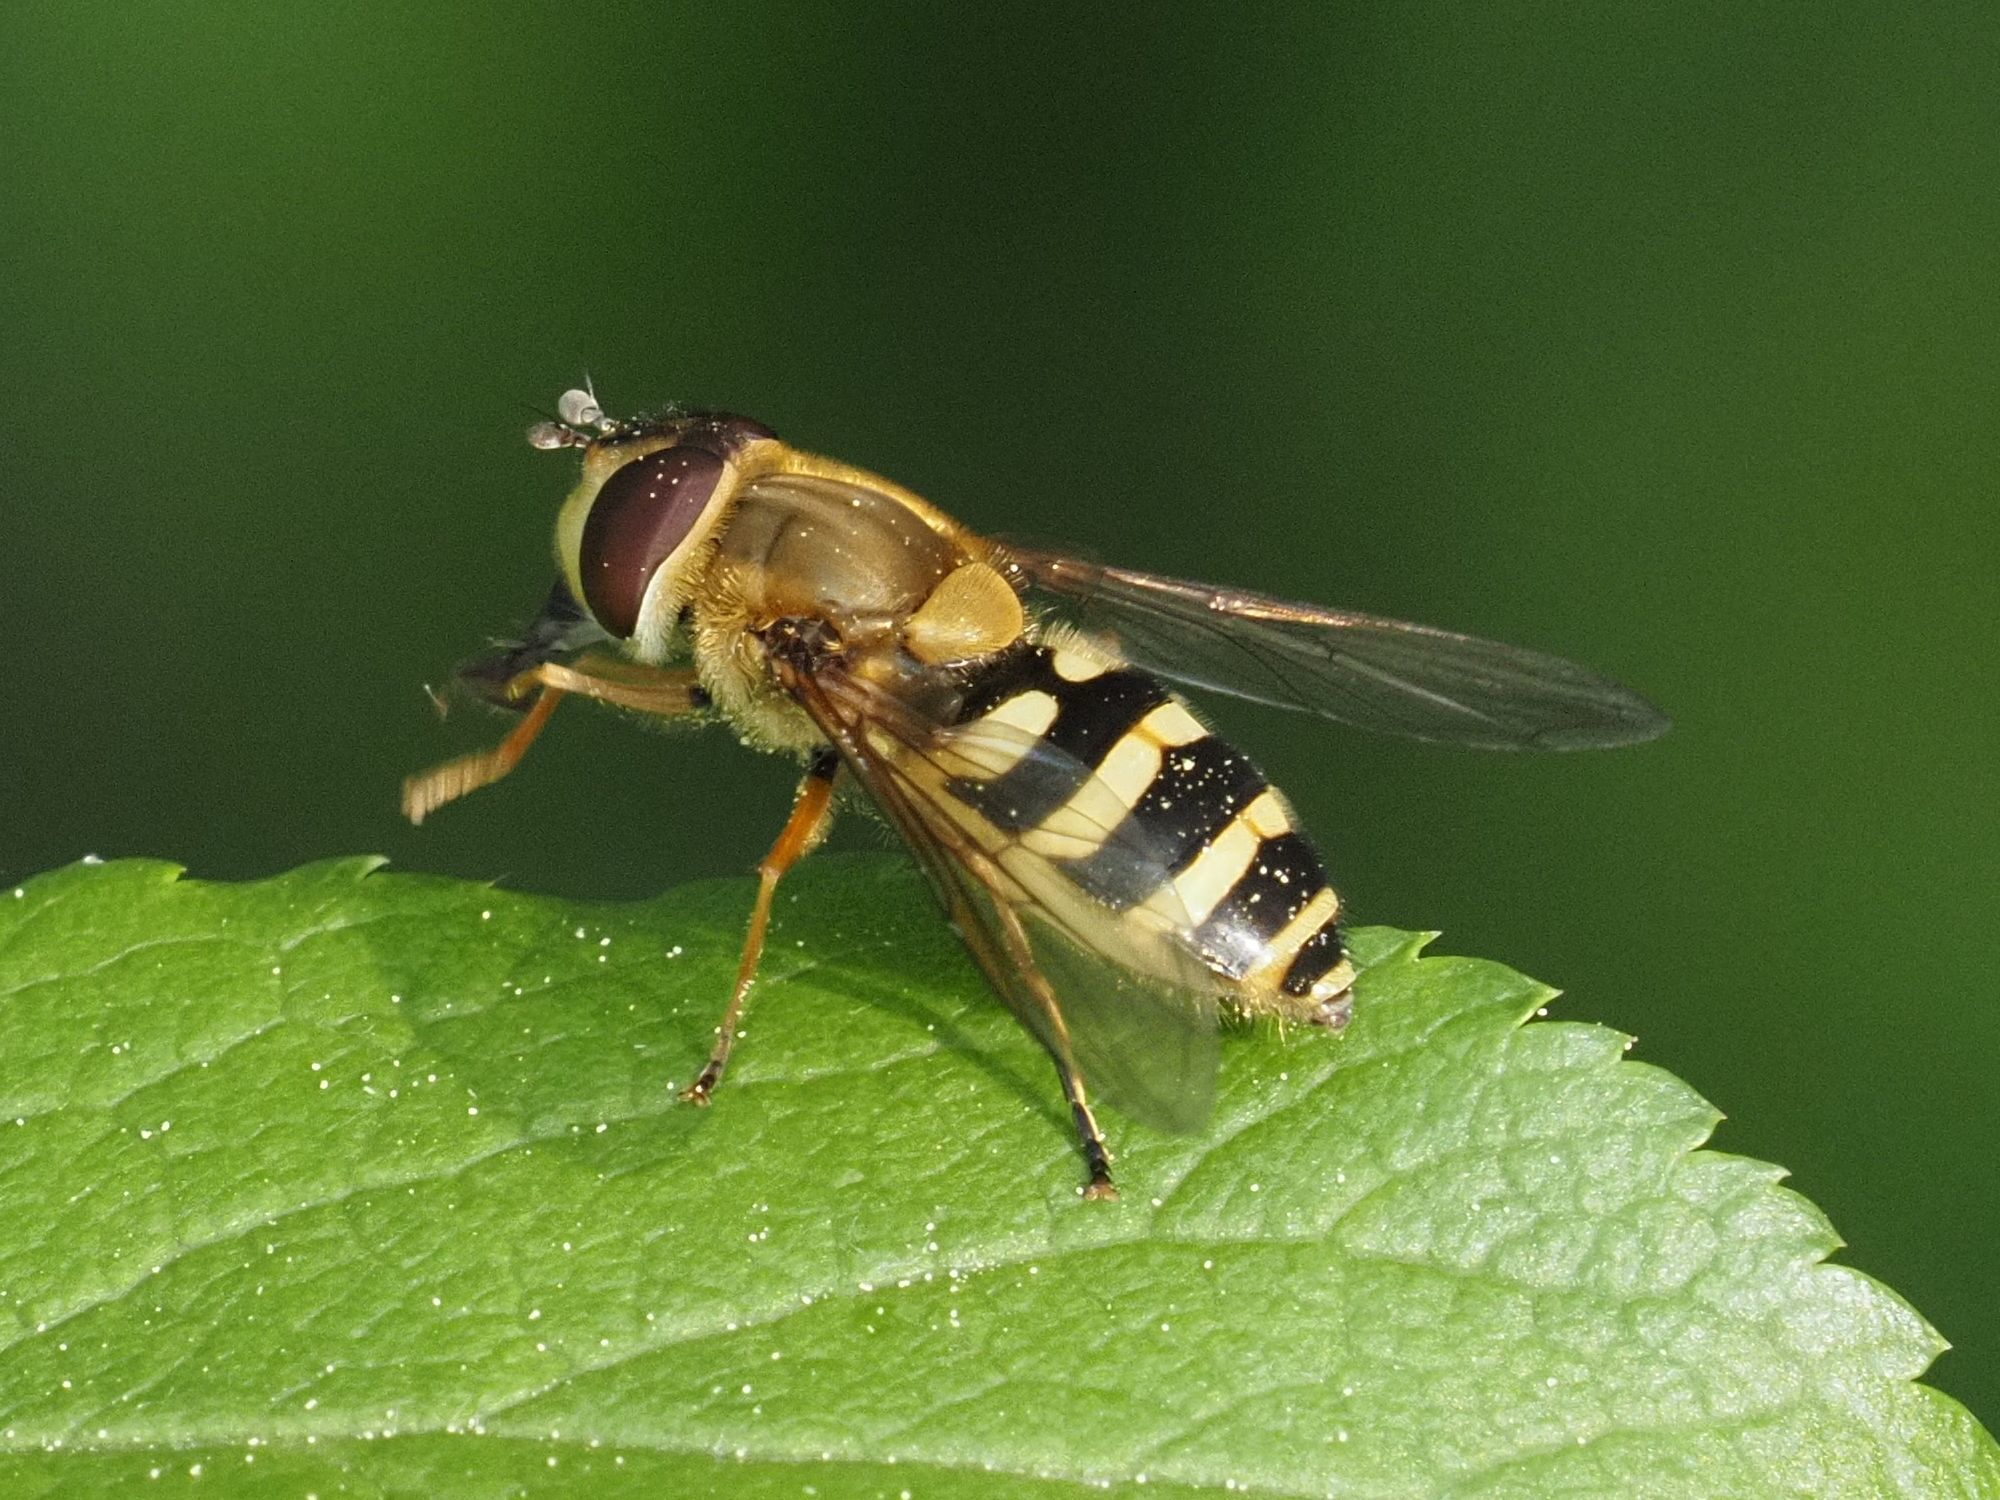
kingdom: Animalia
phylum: Arthropoda
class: Insecta
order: Diptera
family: Syrphidae
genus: Syrphus
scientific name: Syrphus
